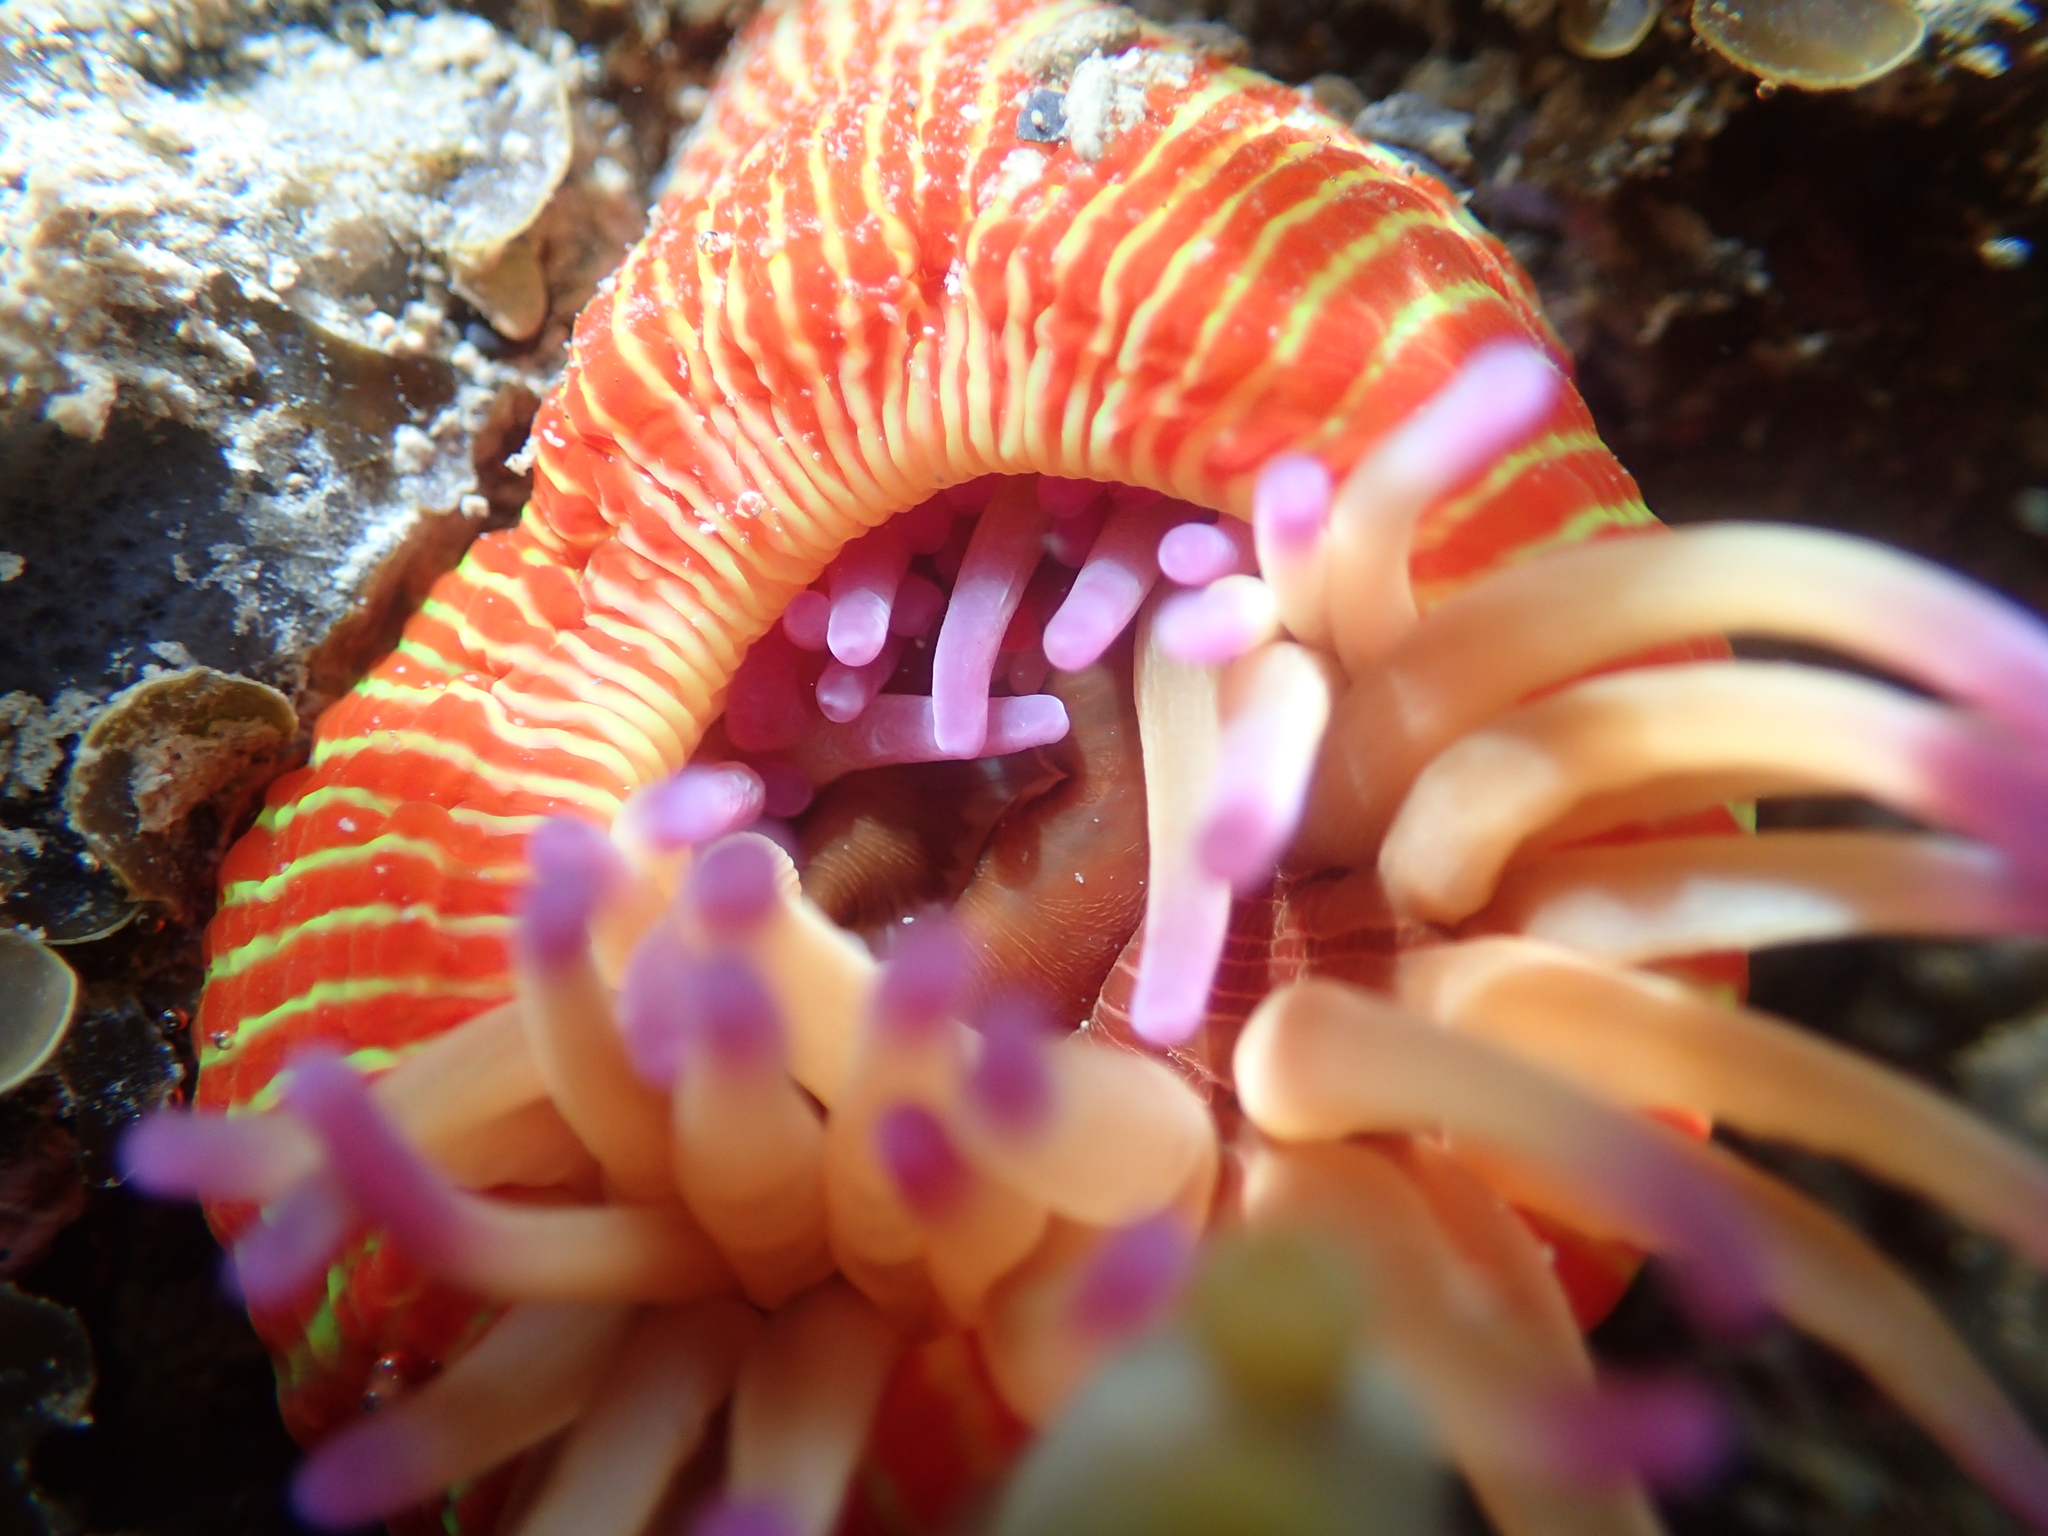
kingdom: Animalia
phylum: Cnidaria
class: Anthozoa
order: Actiniaria
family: Actiniidae
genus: Epiactis
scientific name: Epiactis thompsoni
